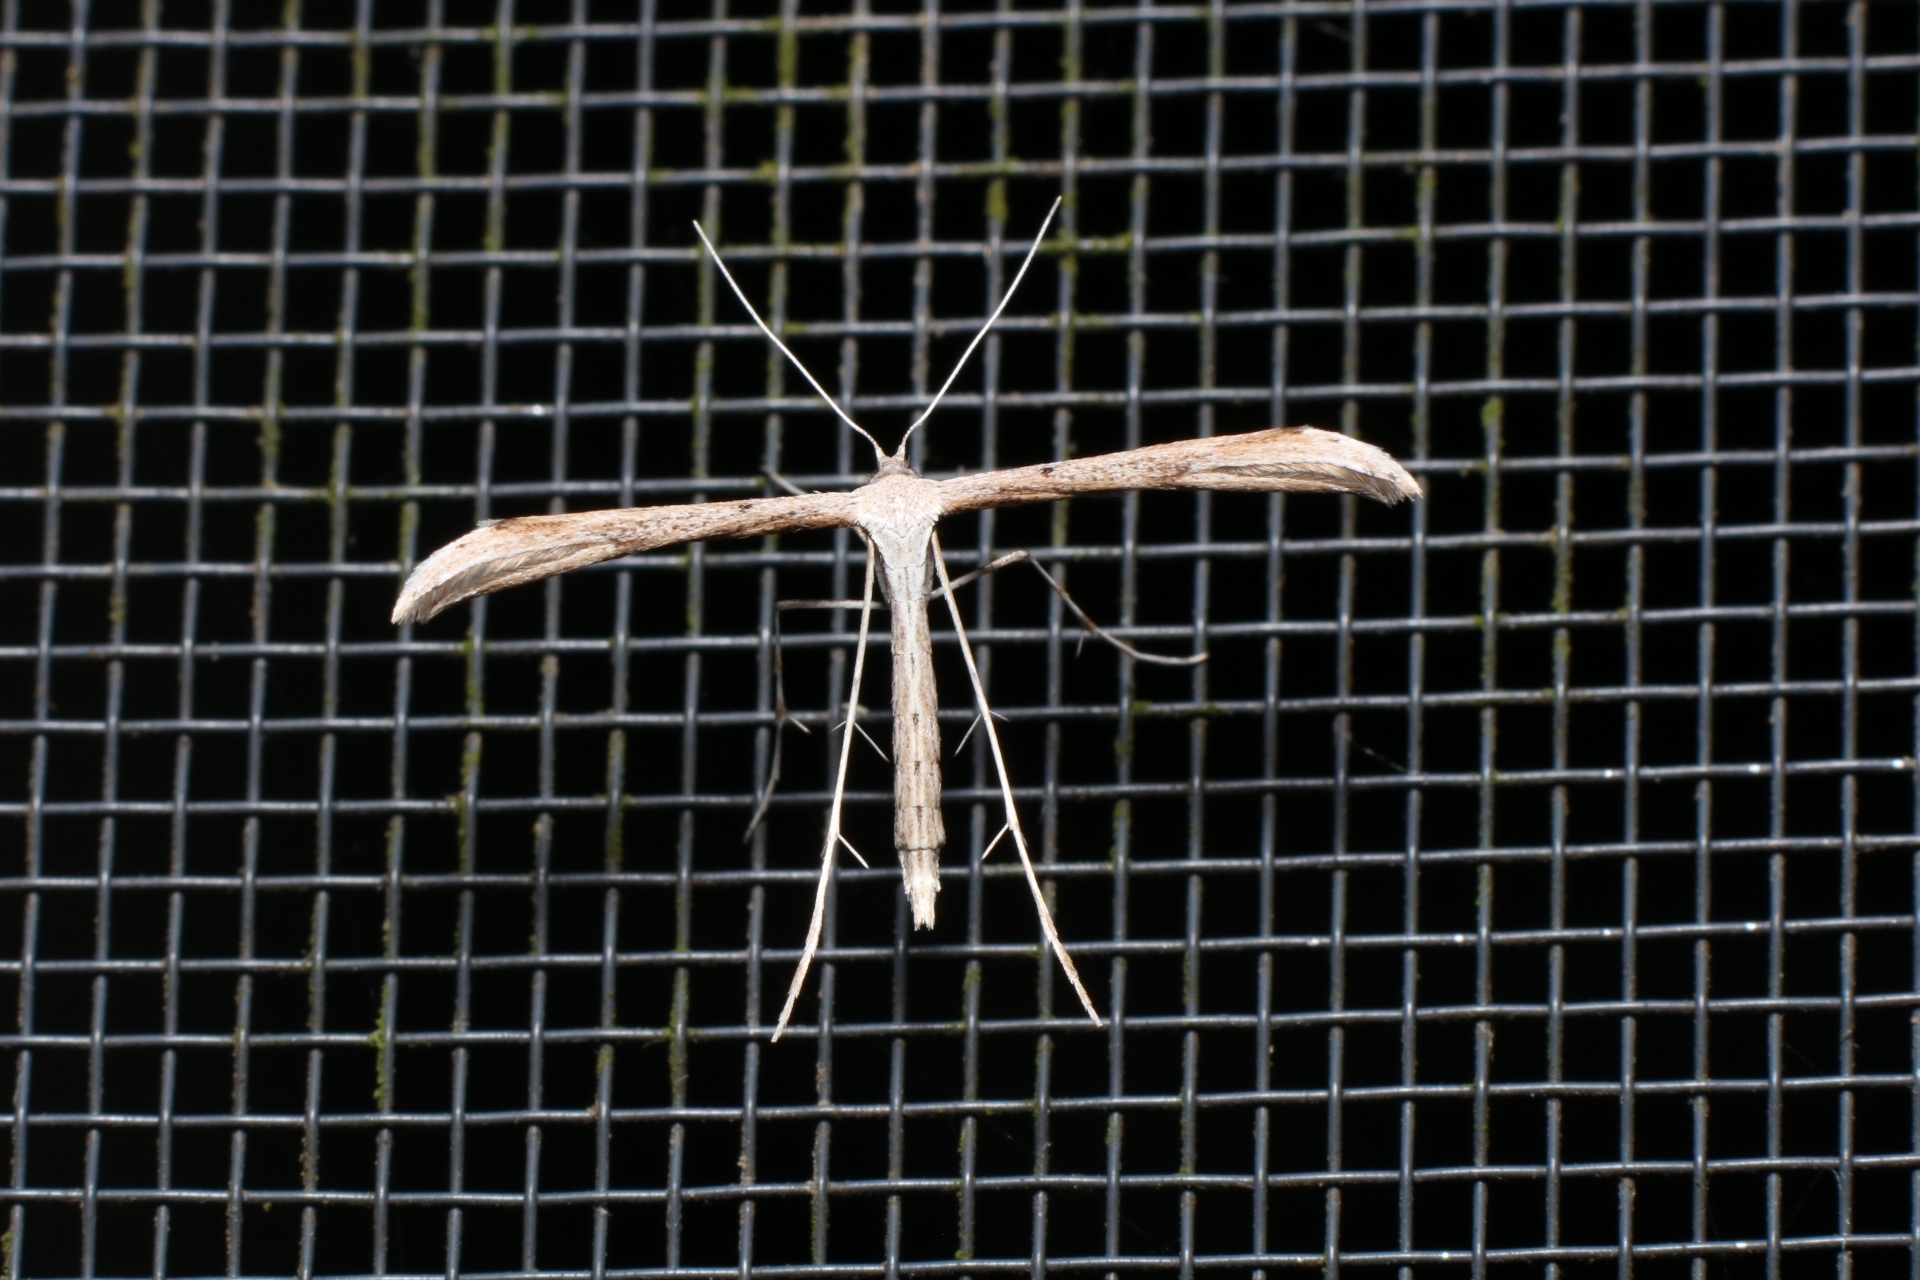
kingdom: Animalia
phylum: Arthropoda
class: Insecta
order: Lepidoptera
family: Pterophoridae
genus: Emmelina
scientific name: Emmelina monodactyla
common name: Common plume
